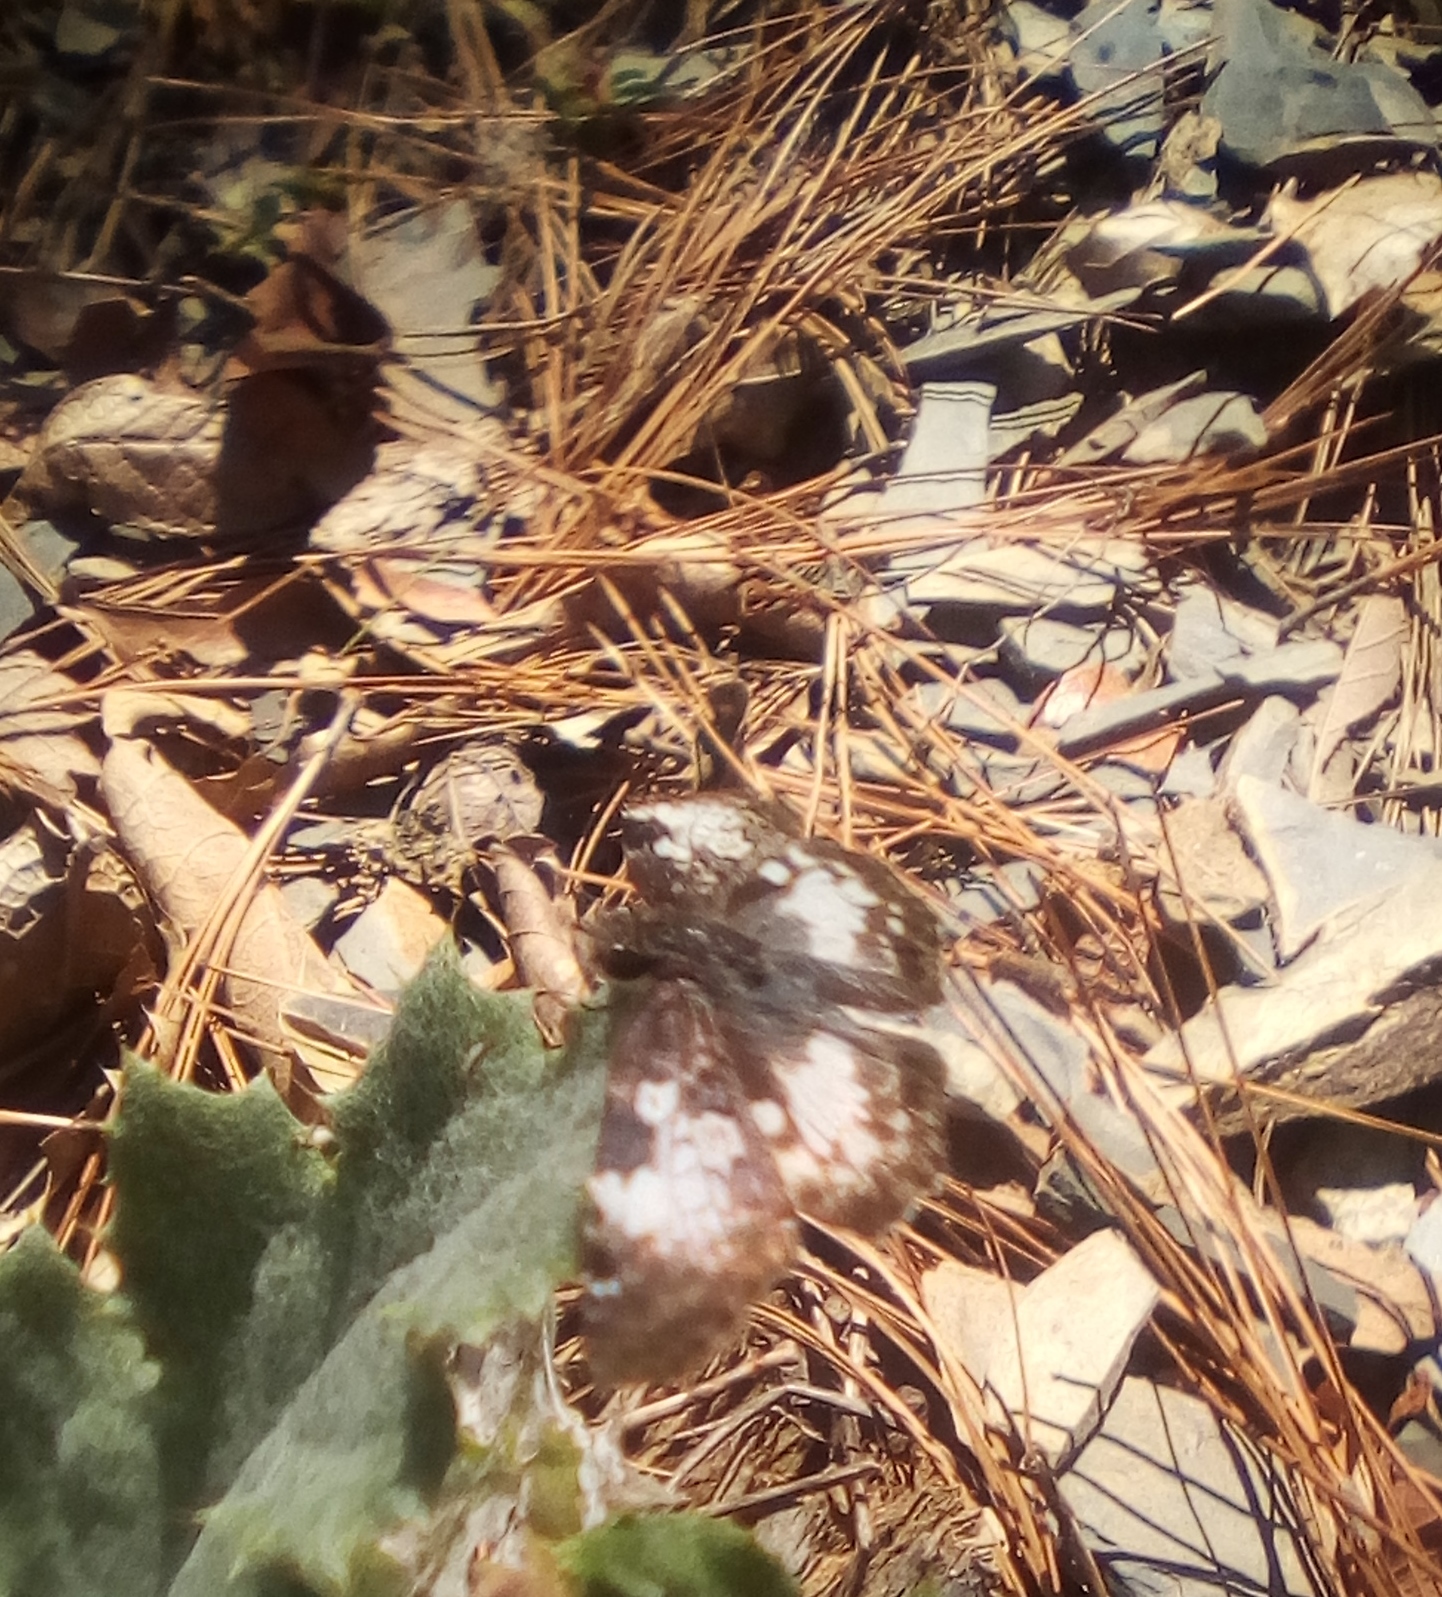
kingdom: Animalia
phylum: Arthropoda
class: Insecta
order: Lepidoptera
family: Hesperiidae
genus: Chiothion
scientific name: Chiothion georgina
